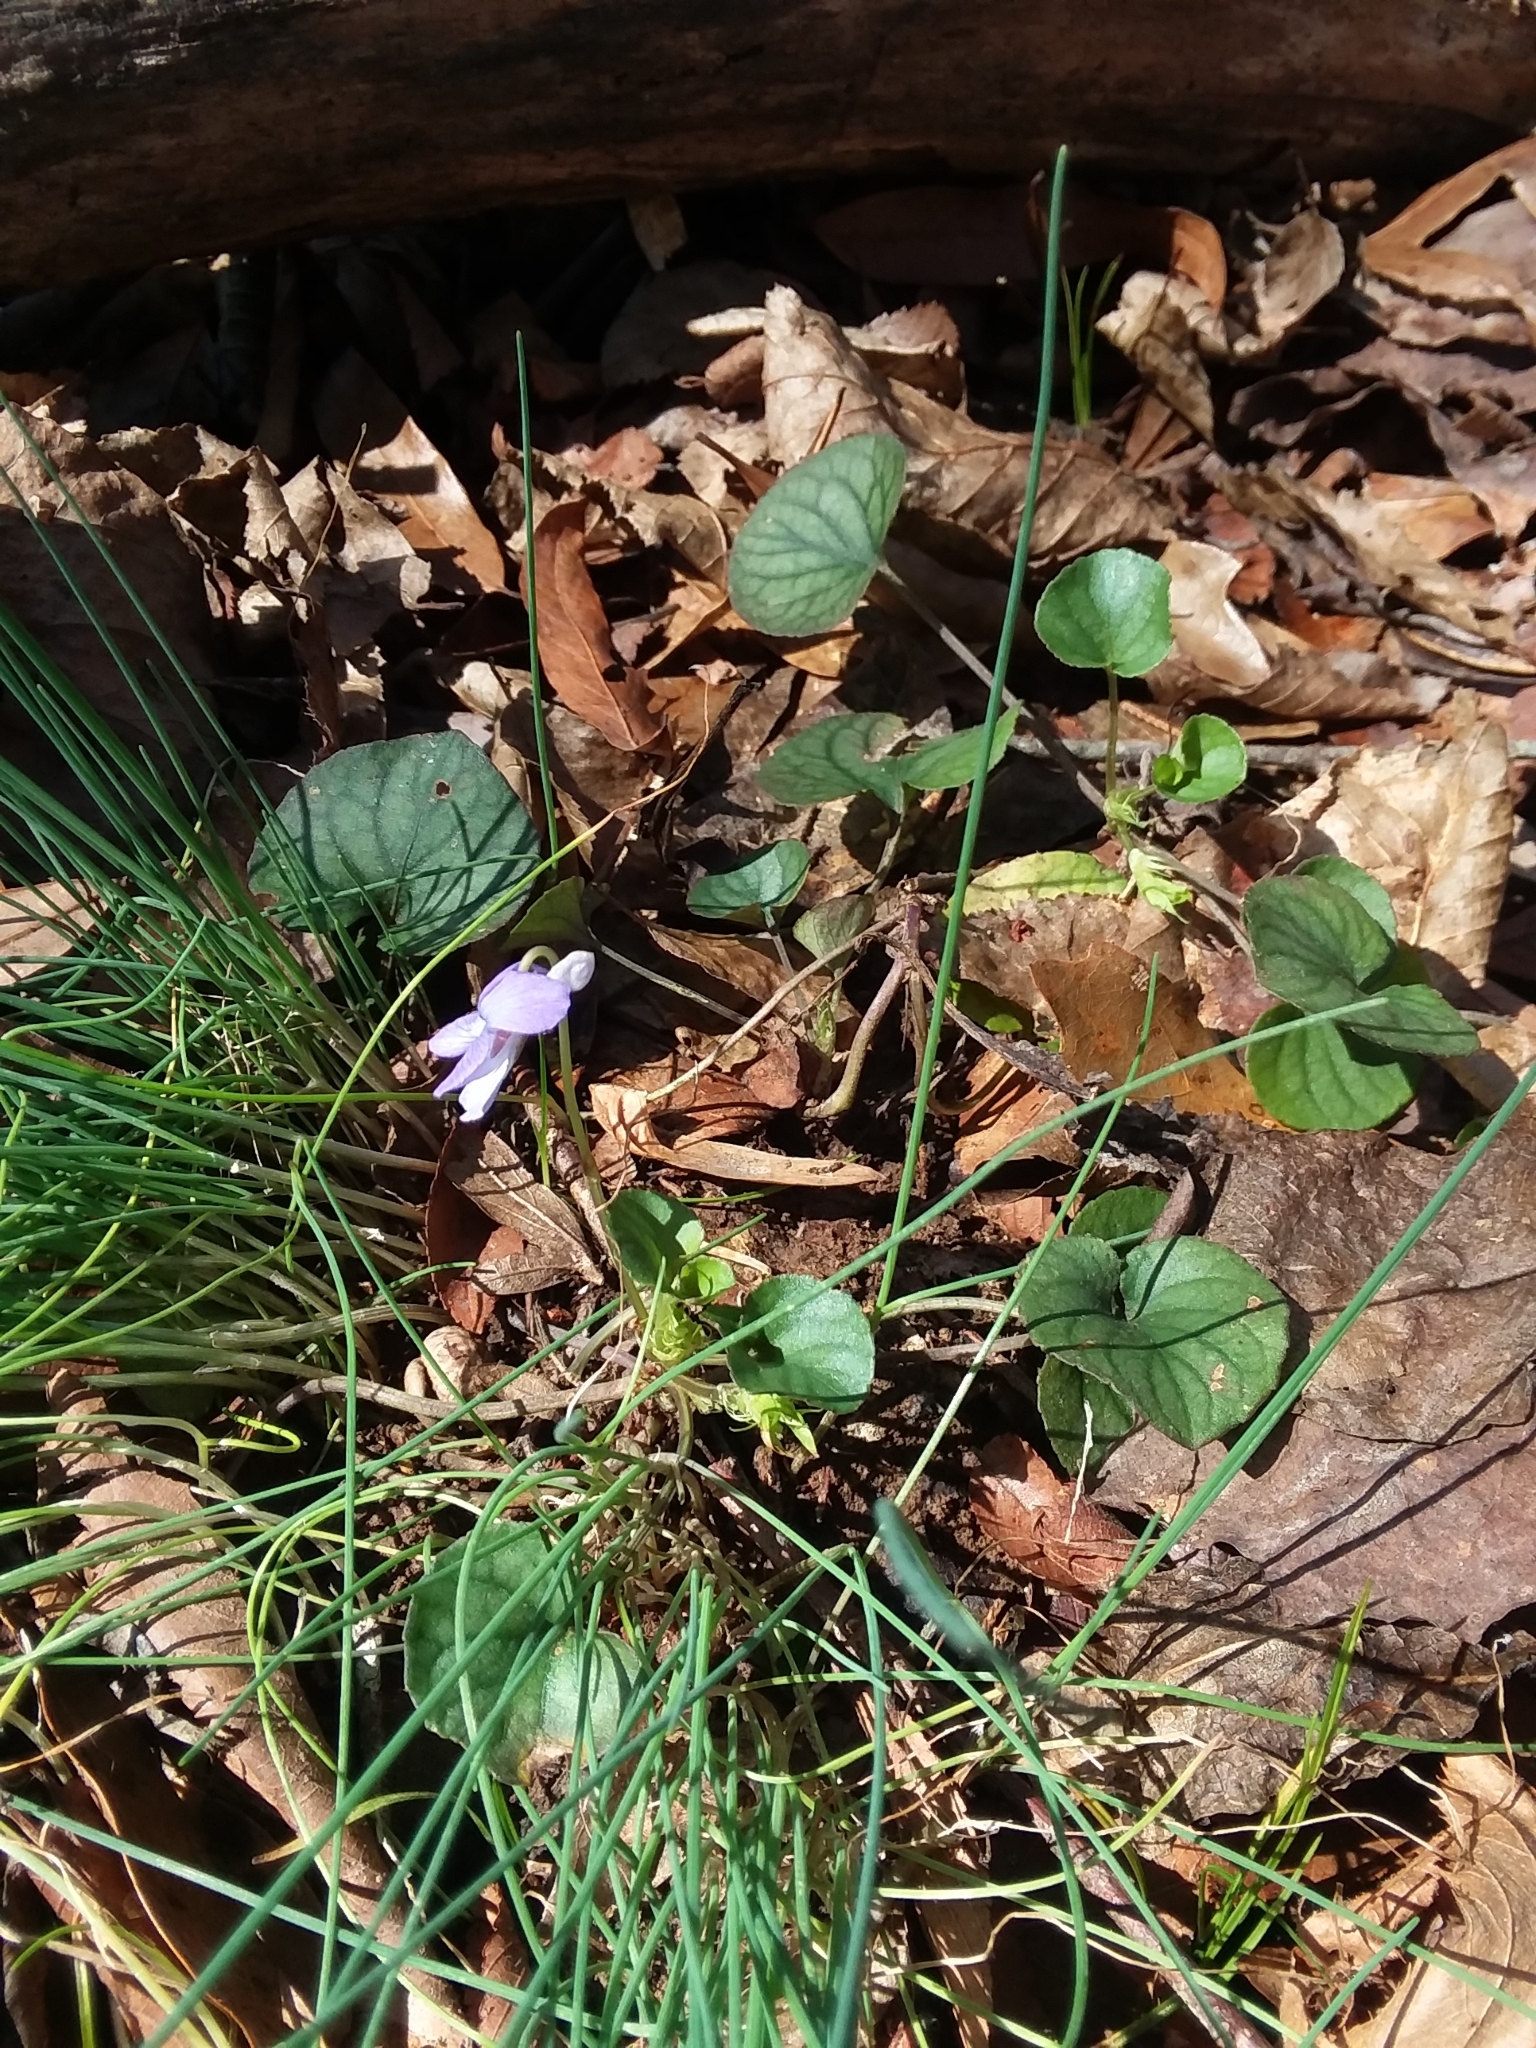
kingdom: Plantae
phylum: Tracheophyta
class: Magnoliopsida
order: Malpighiales
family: Violaceae
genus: Viola
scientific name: Viola walteri
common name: Prostrate southern violet
